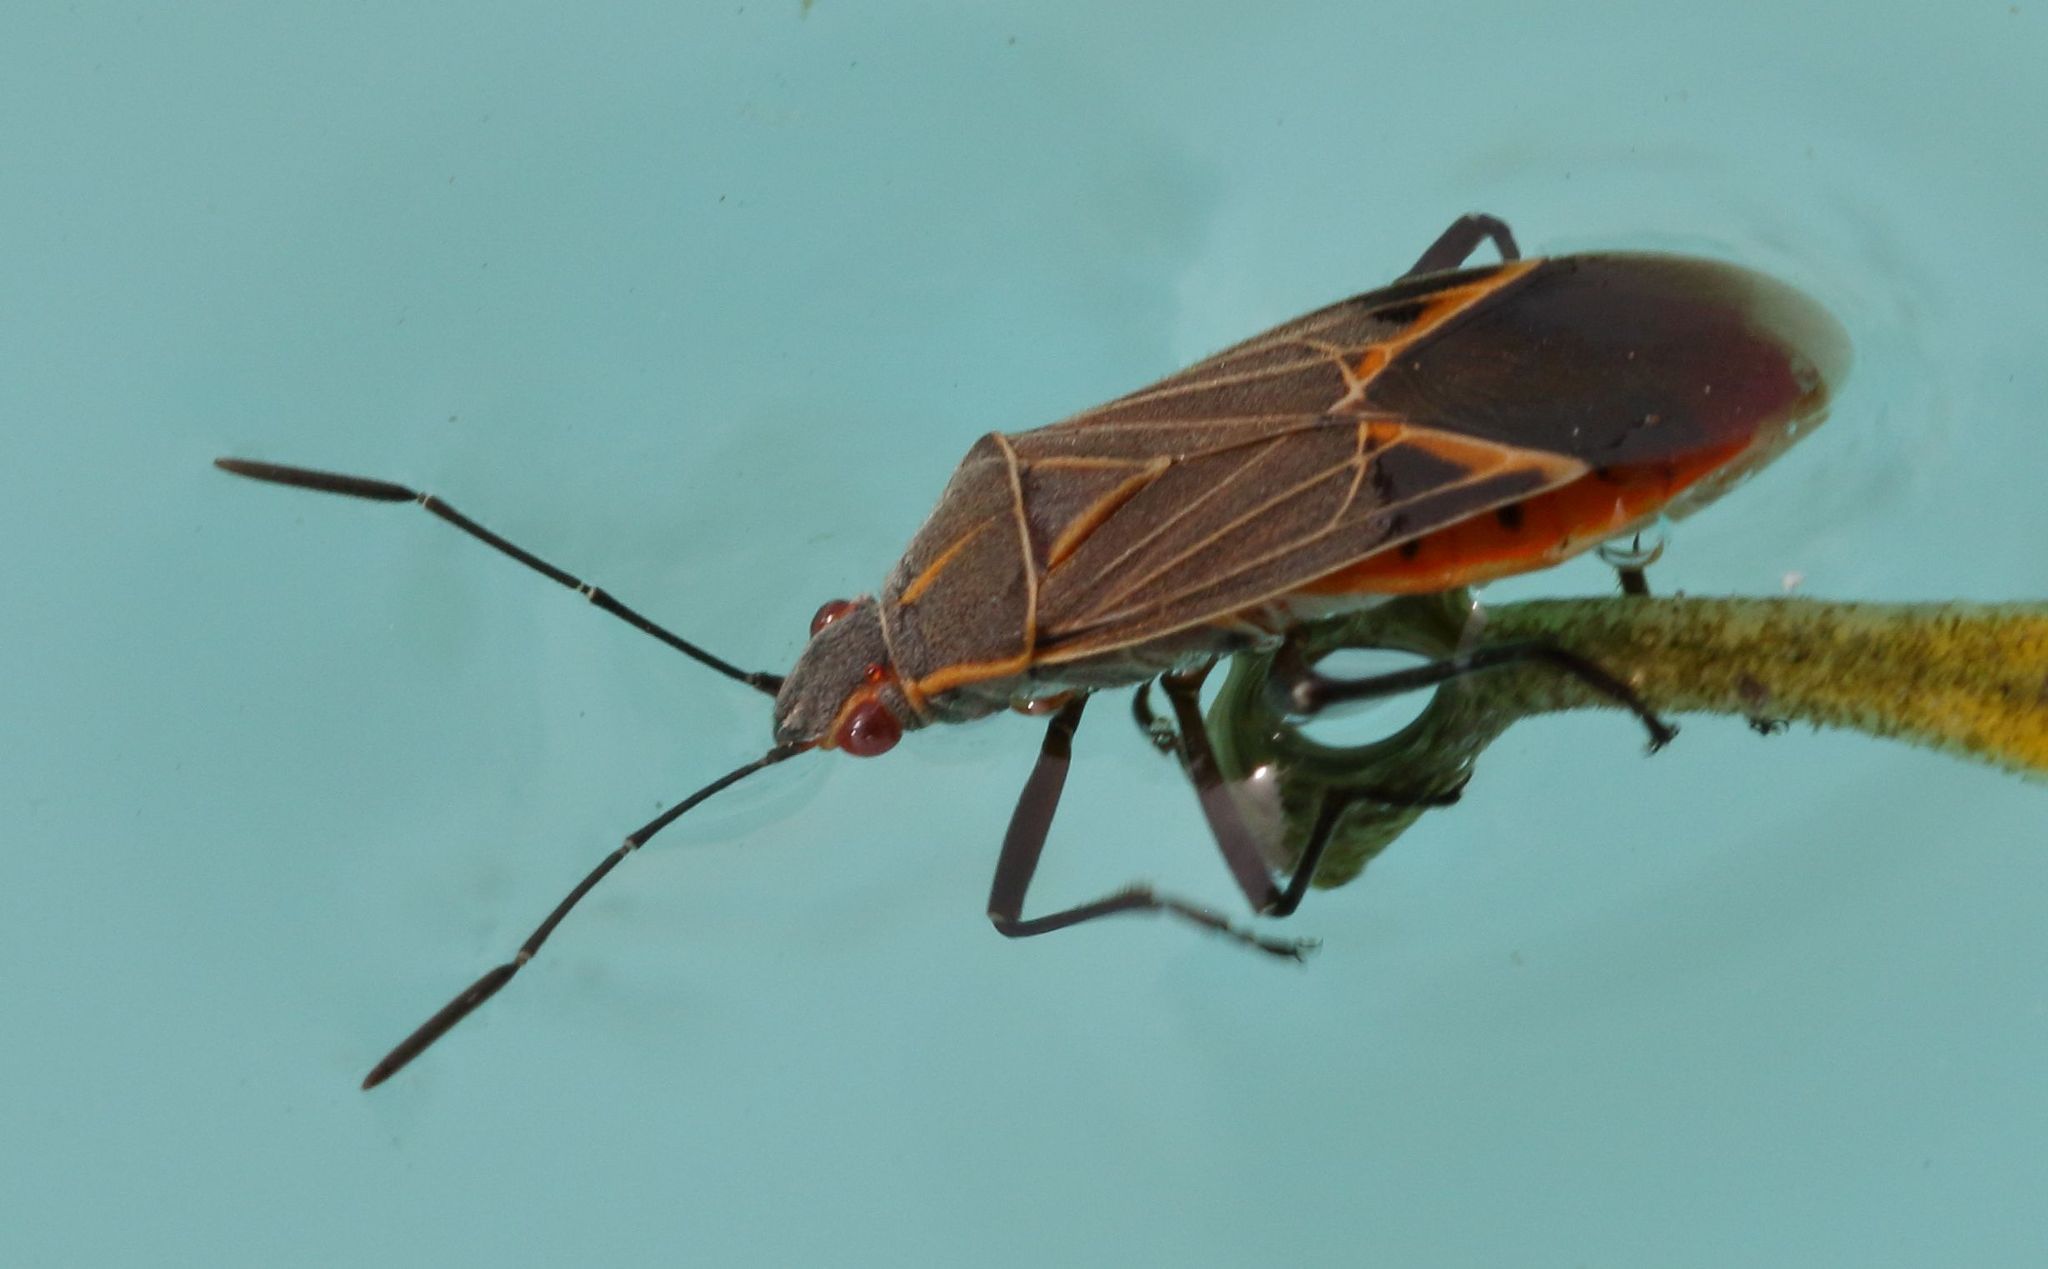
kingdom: Animalia
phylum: Arthropoda
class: Insecta
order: Hemiptera
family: Rhopalidae
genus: Boisea
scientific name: Boisea fulcrata
